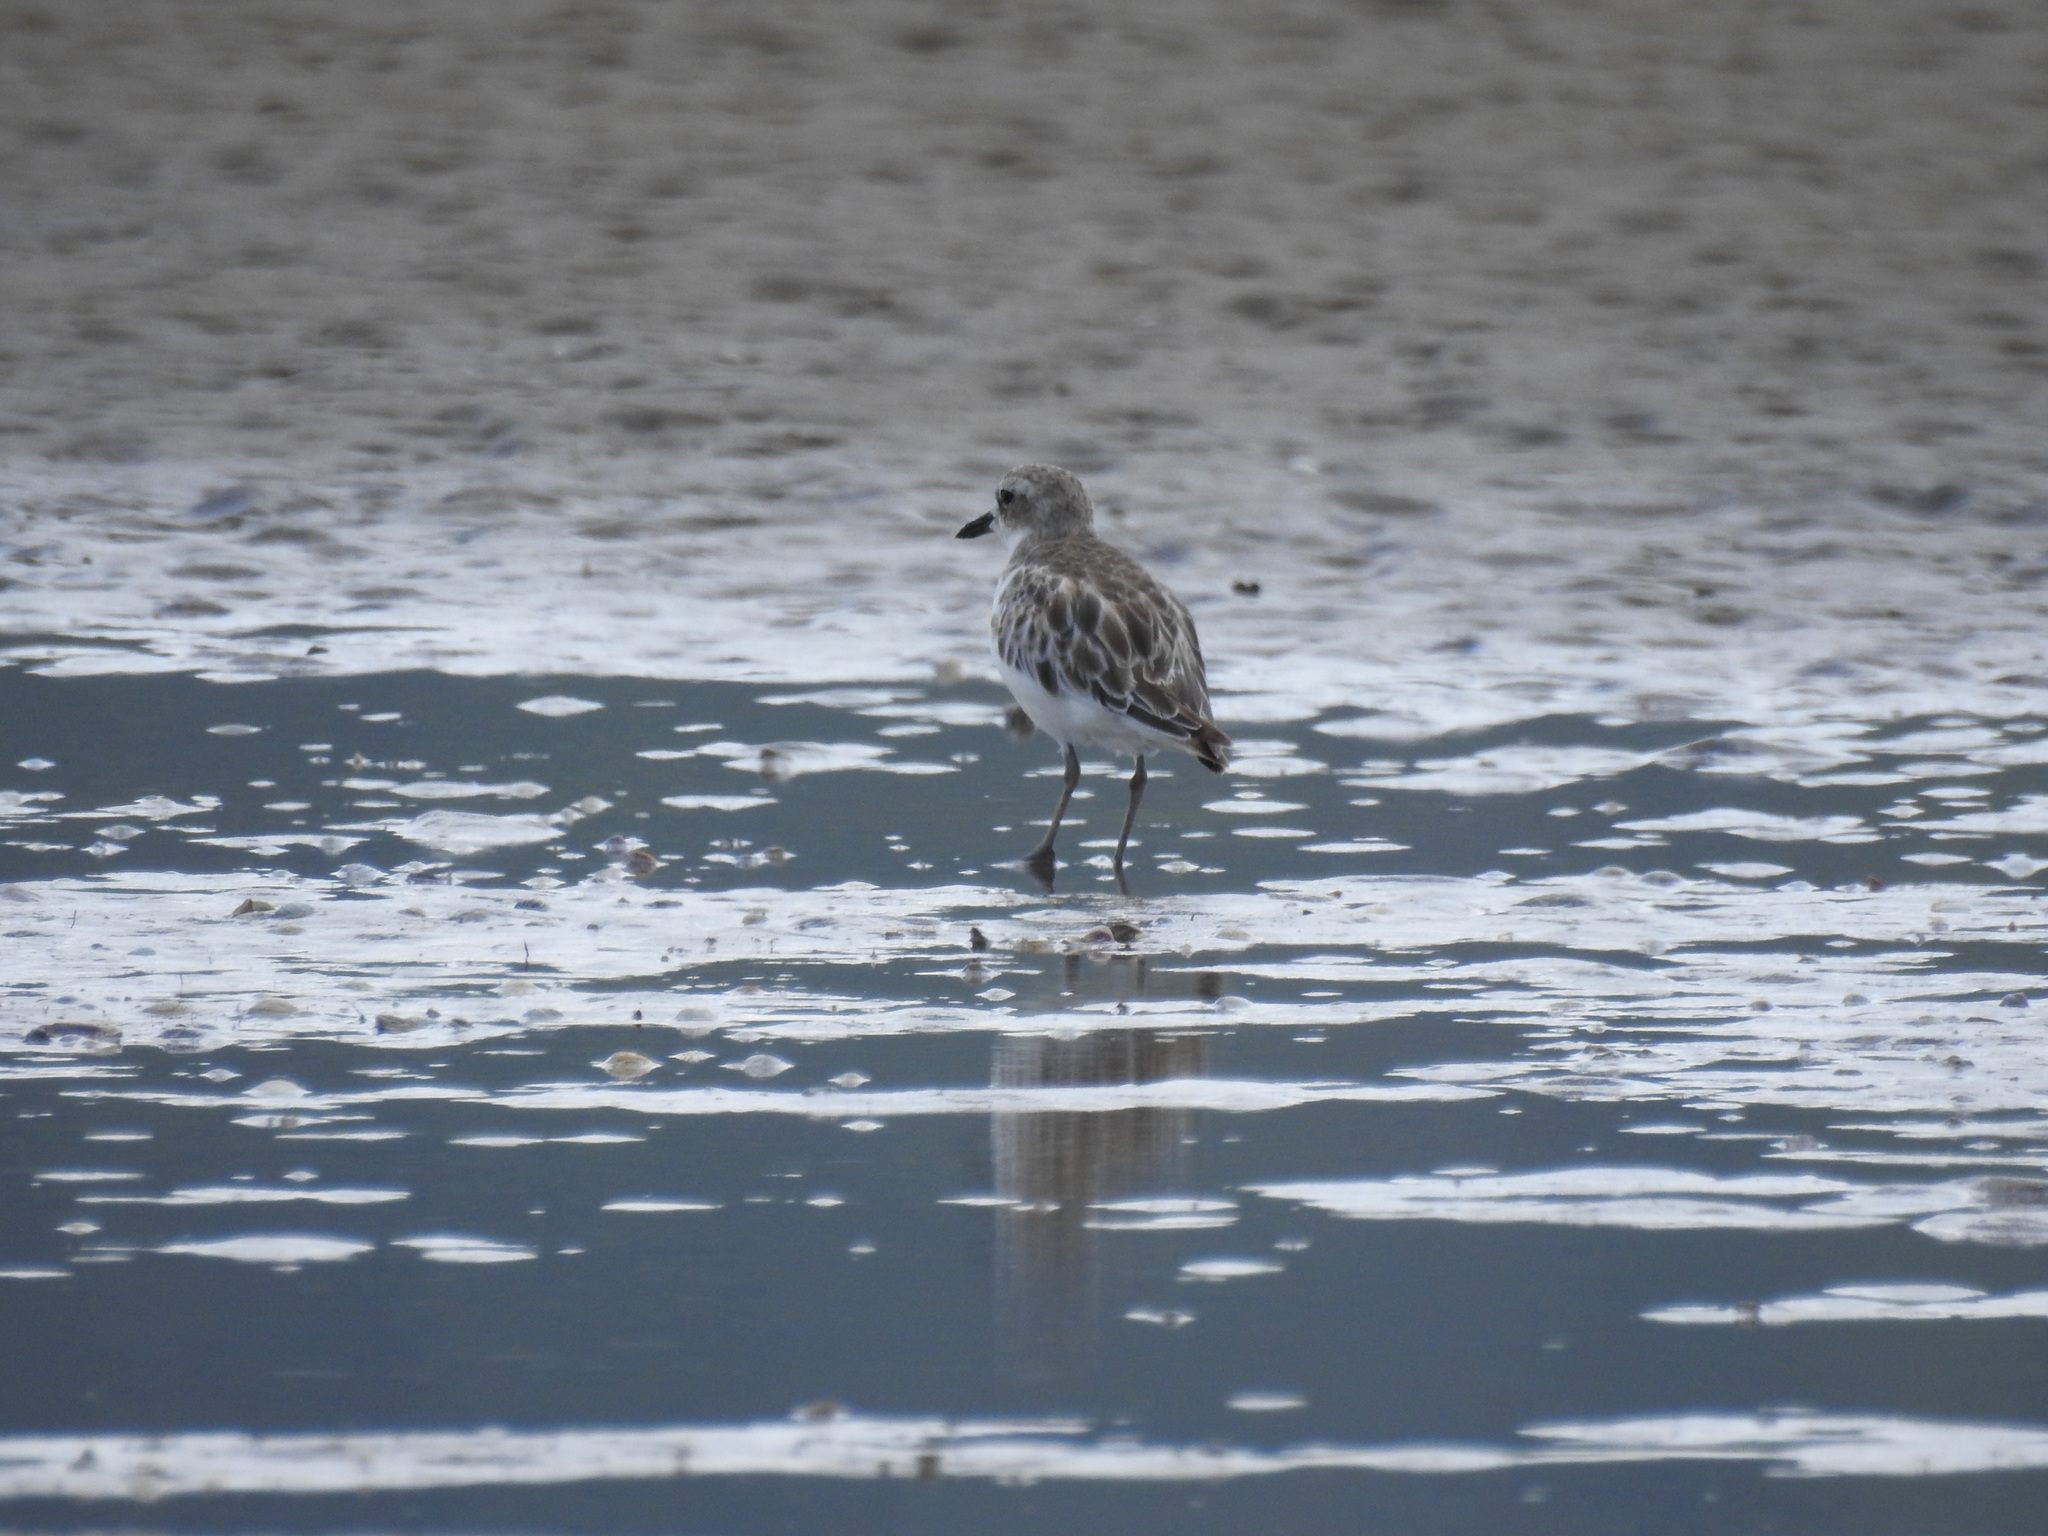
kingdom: Animalia
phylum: Chordata
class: Aves
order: Charadriiformes
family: Charadriidae
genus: Anarhynchus
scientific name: Anarhynchus
